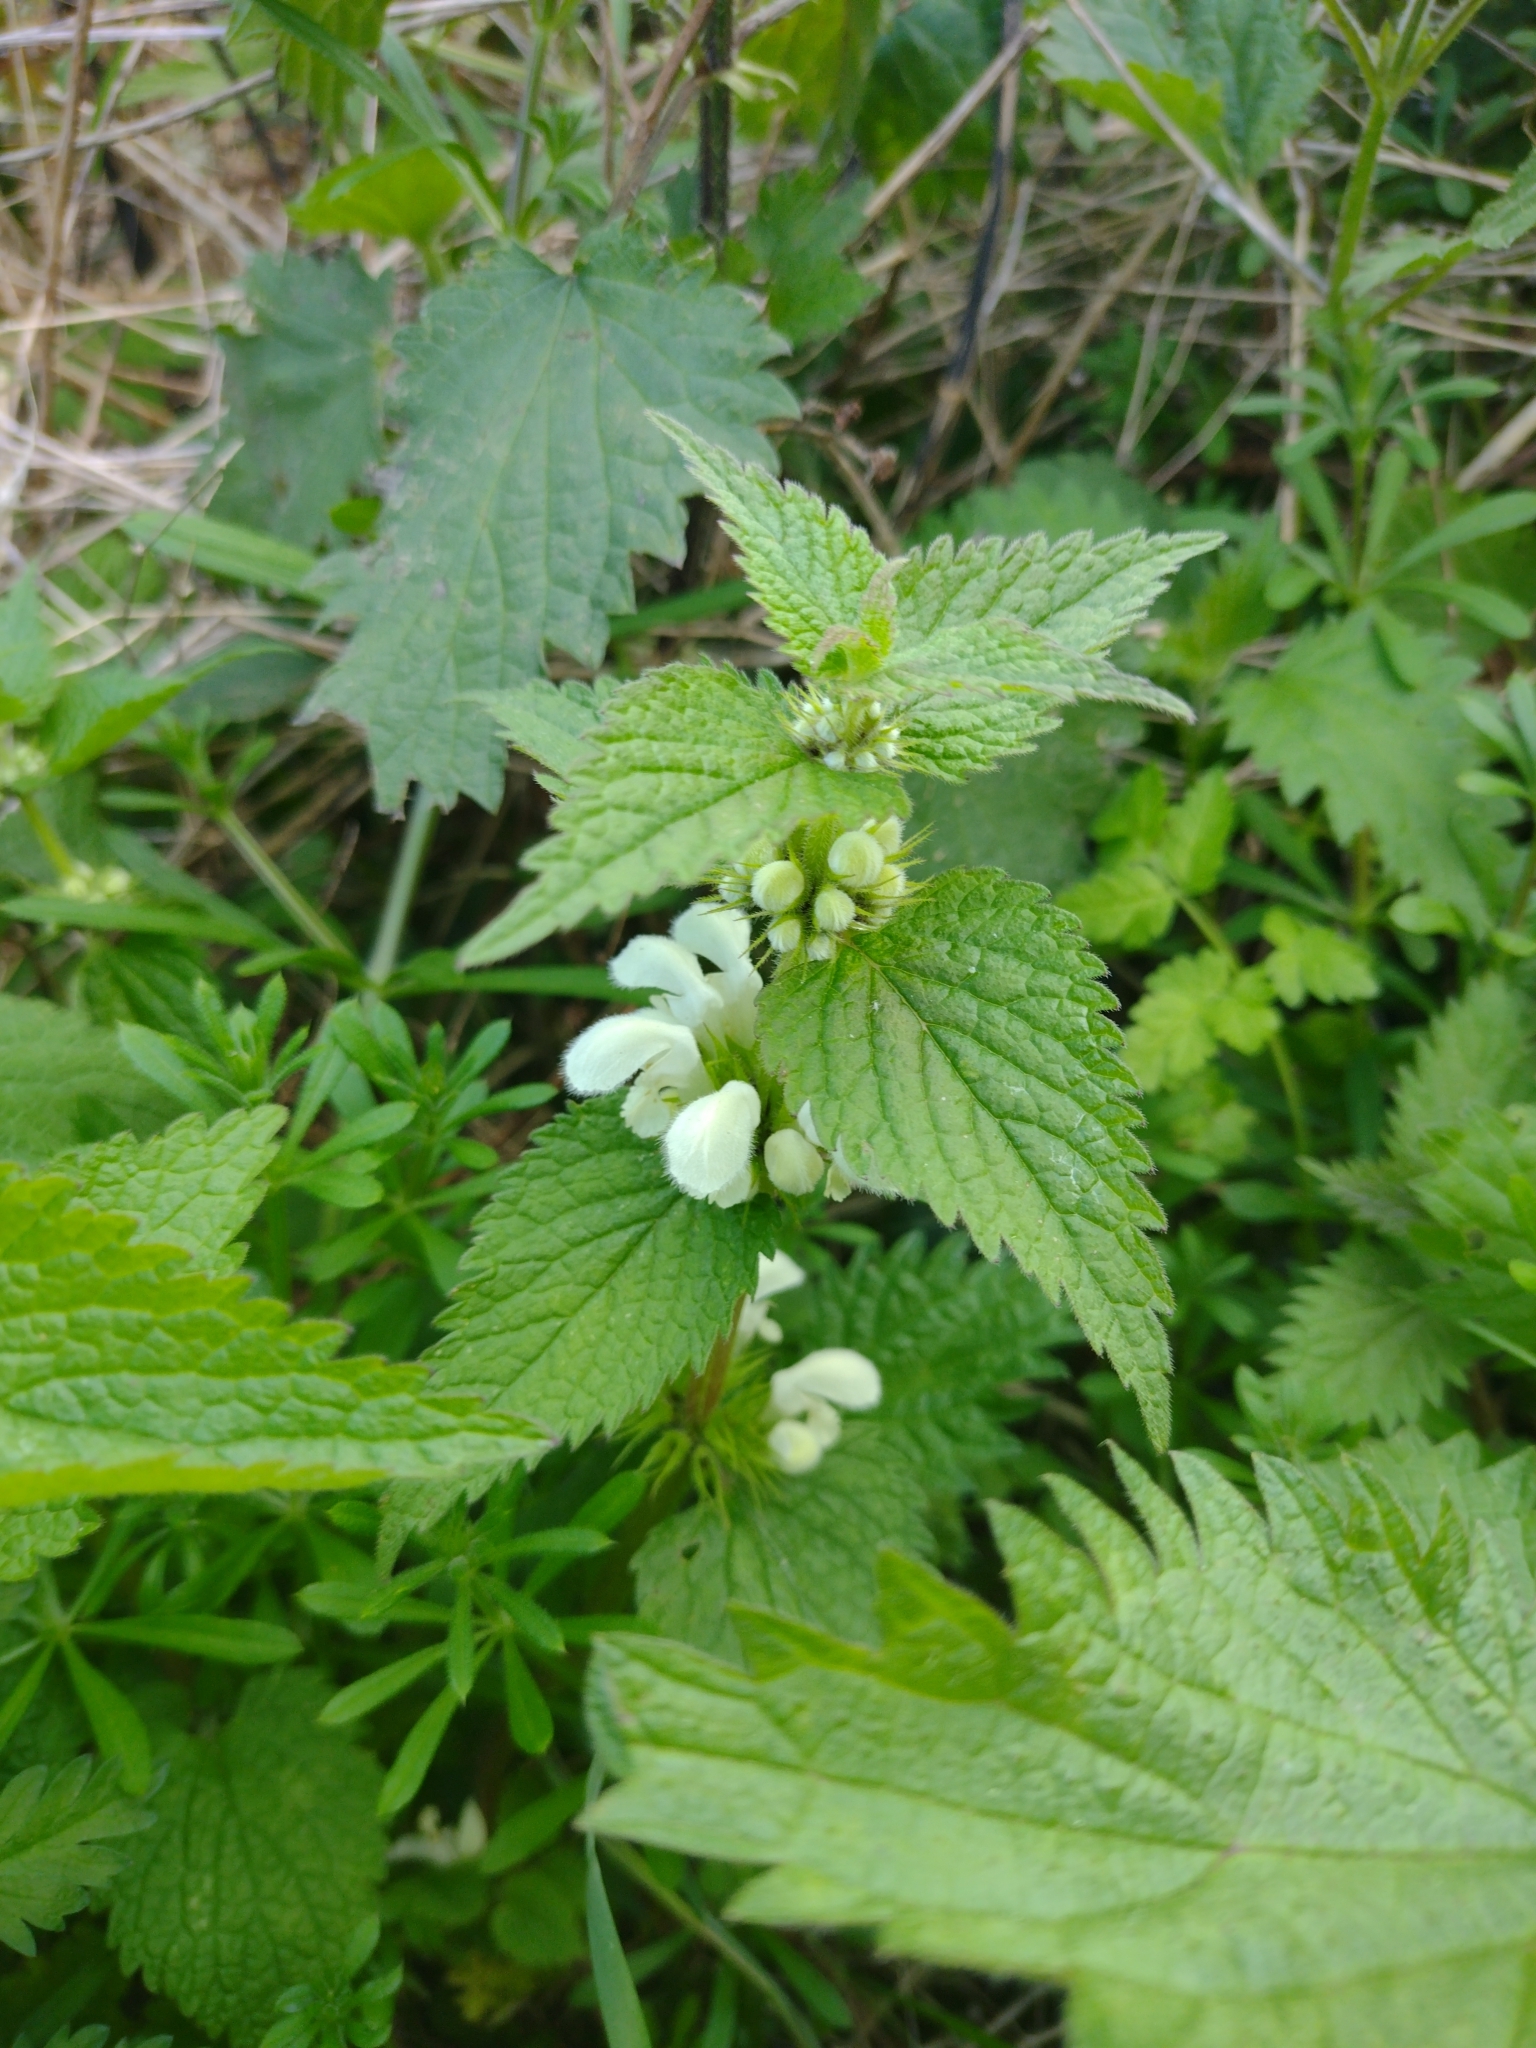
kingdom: Plantae
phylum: Tracheophyta
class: Magnoliopsida
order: Lamiales
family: Lamiaceae
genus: Lamium
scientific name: Lamium album
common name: White dead-nettle
